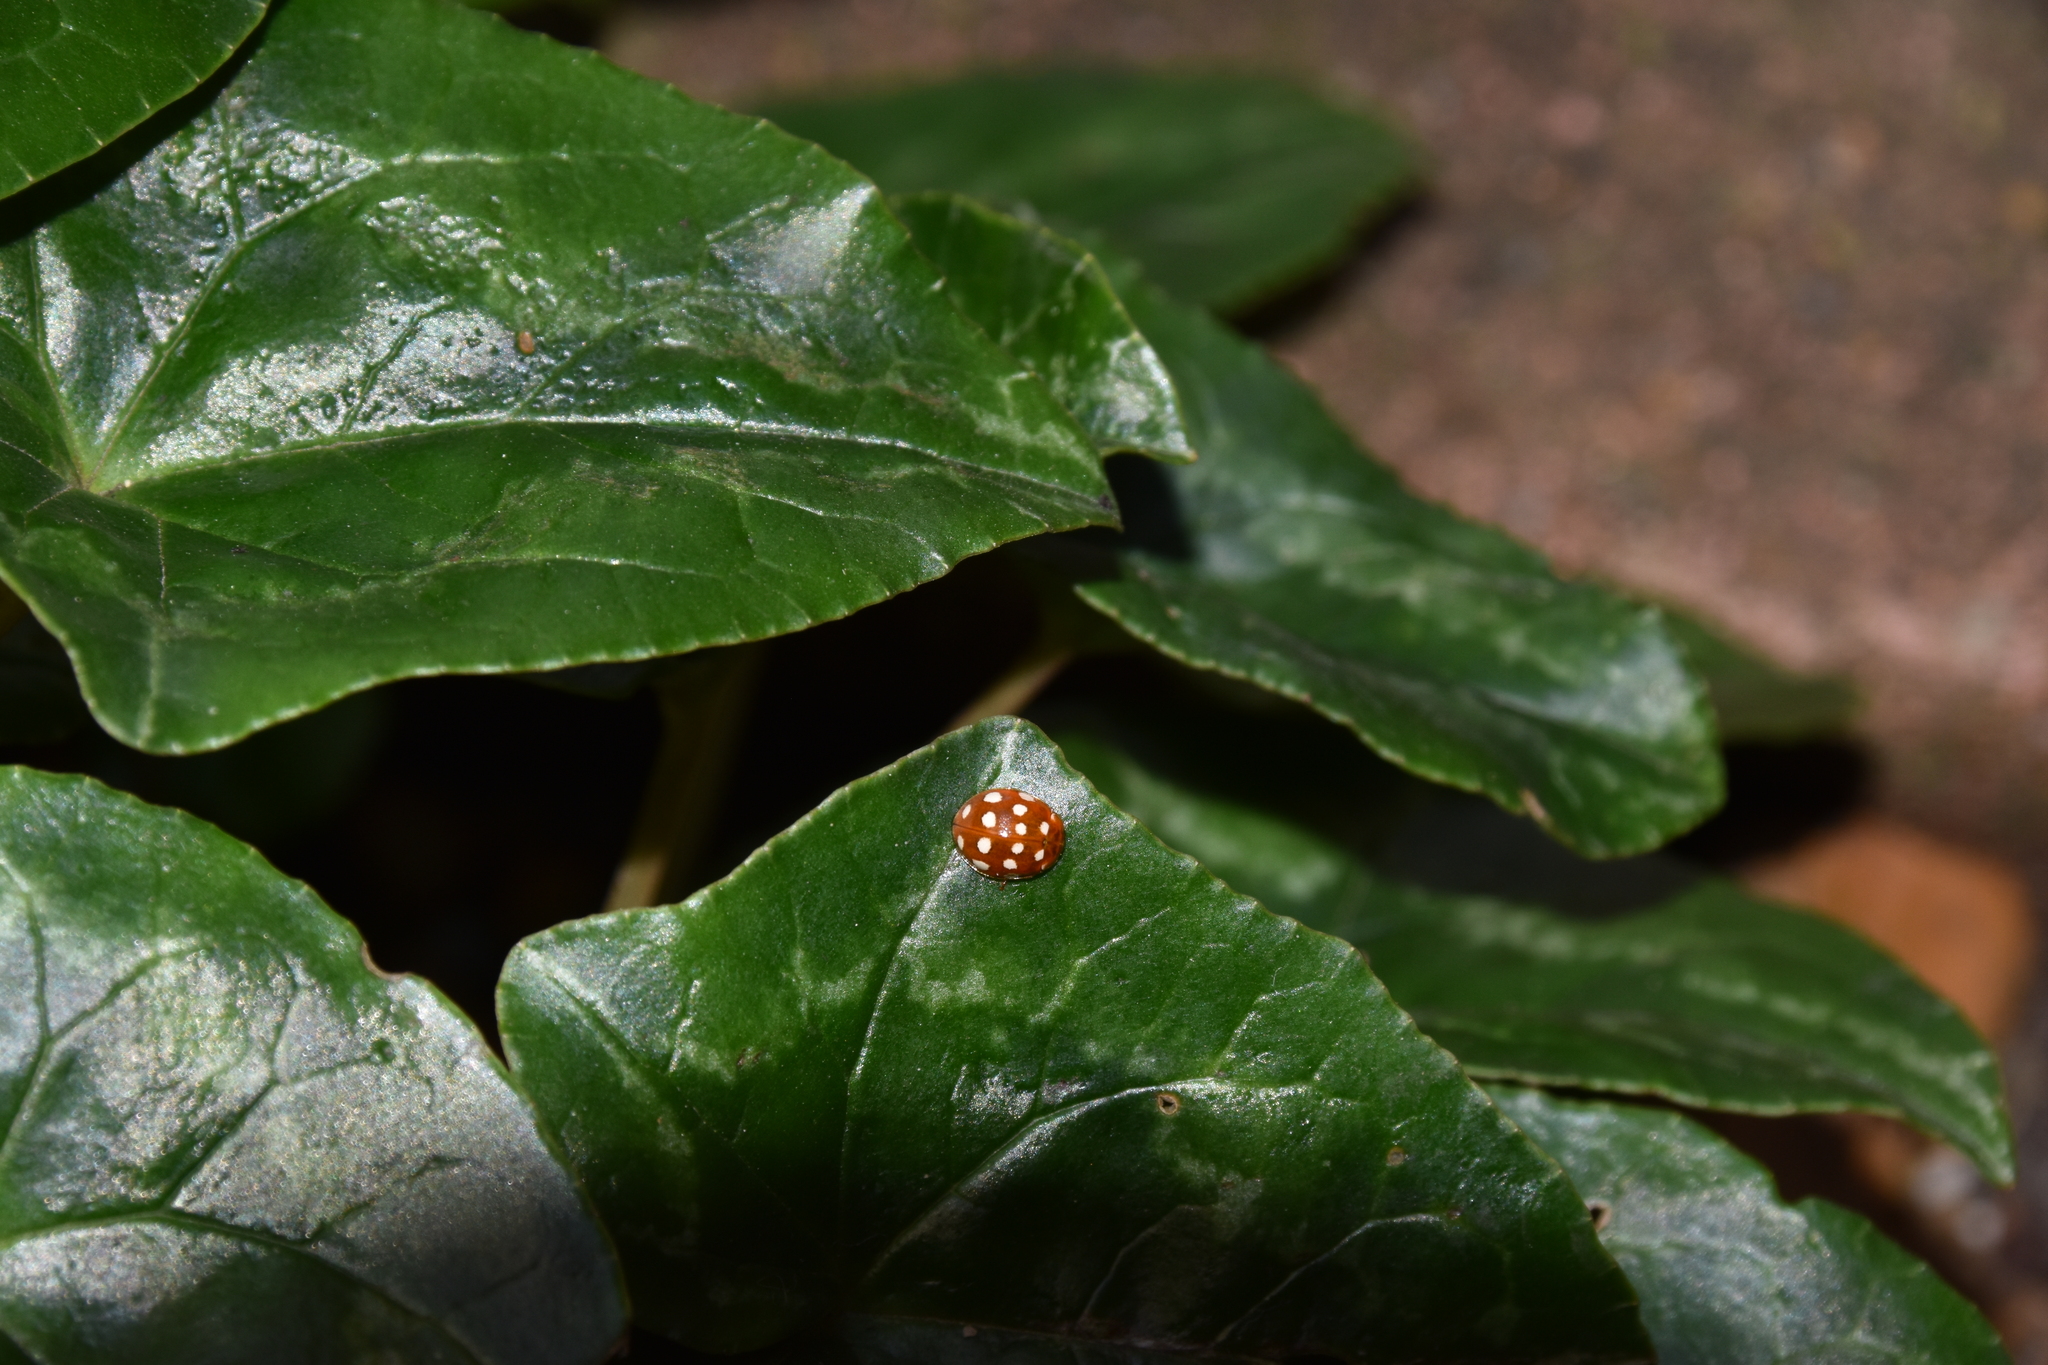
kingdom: Animalia
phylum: Arthropoda
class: Insecta
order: Coleoptera
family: Coccinellidae
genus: Calvia
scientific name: Calvia quatuordecimguttata
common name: Cream-spot ladybird
